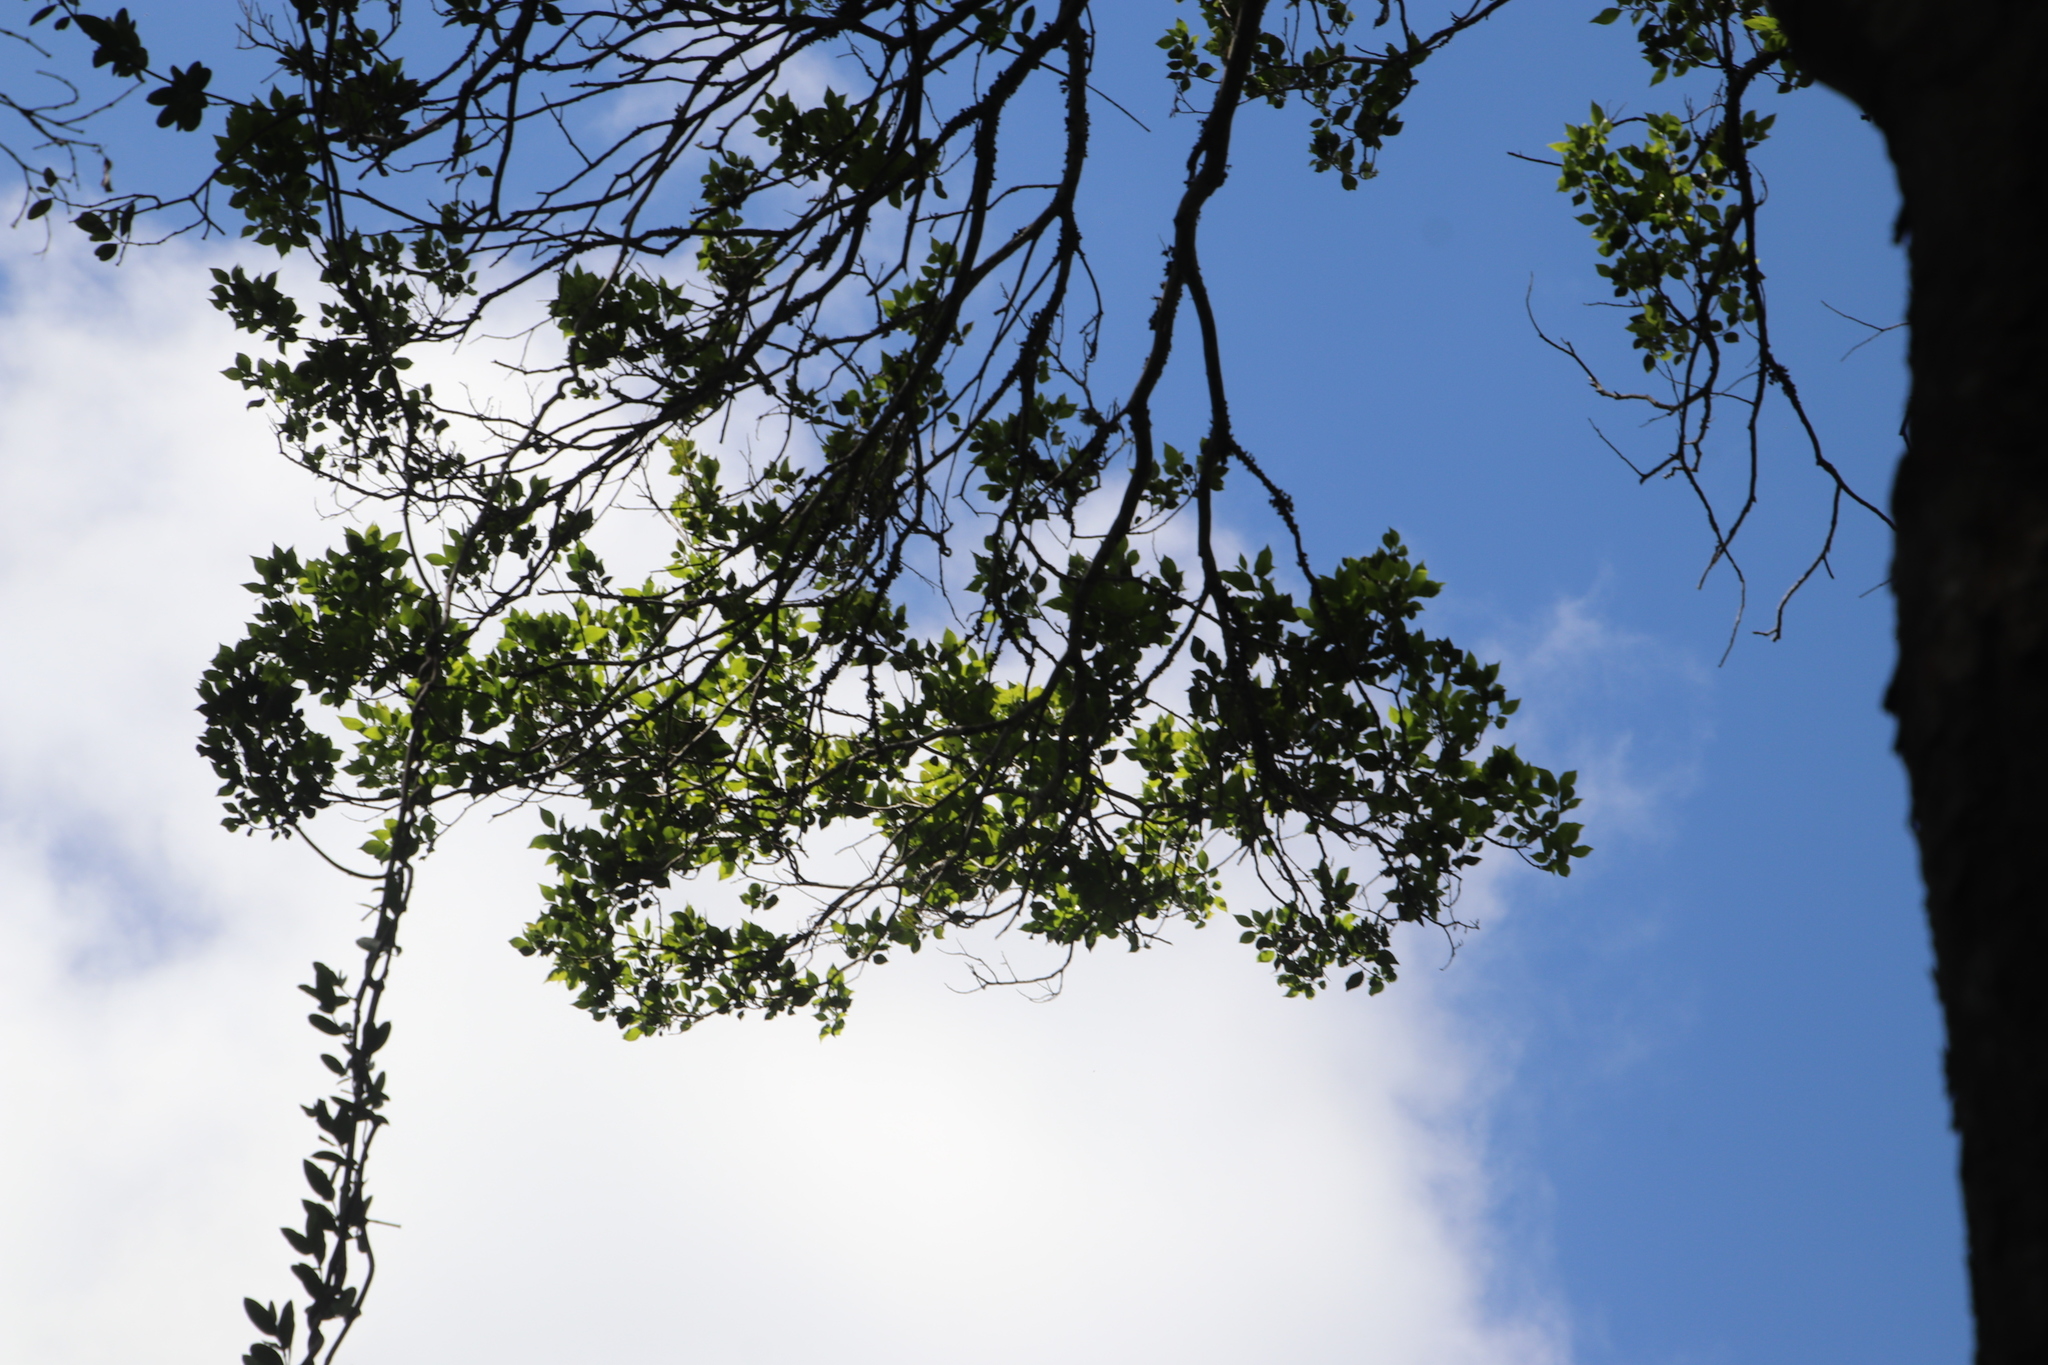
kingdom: Plantae
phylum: Tracheophyta
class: Magnoliopsida
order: Rosales
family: Cannabaceae
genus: Celtis
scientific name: Celtis africana
